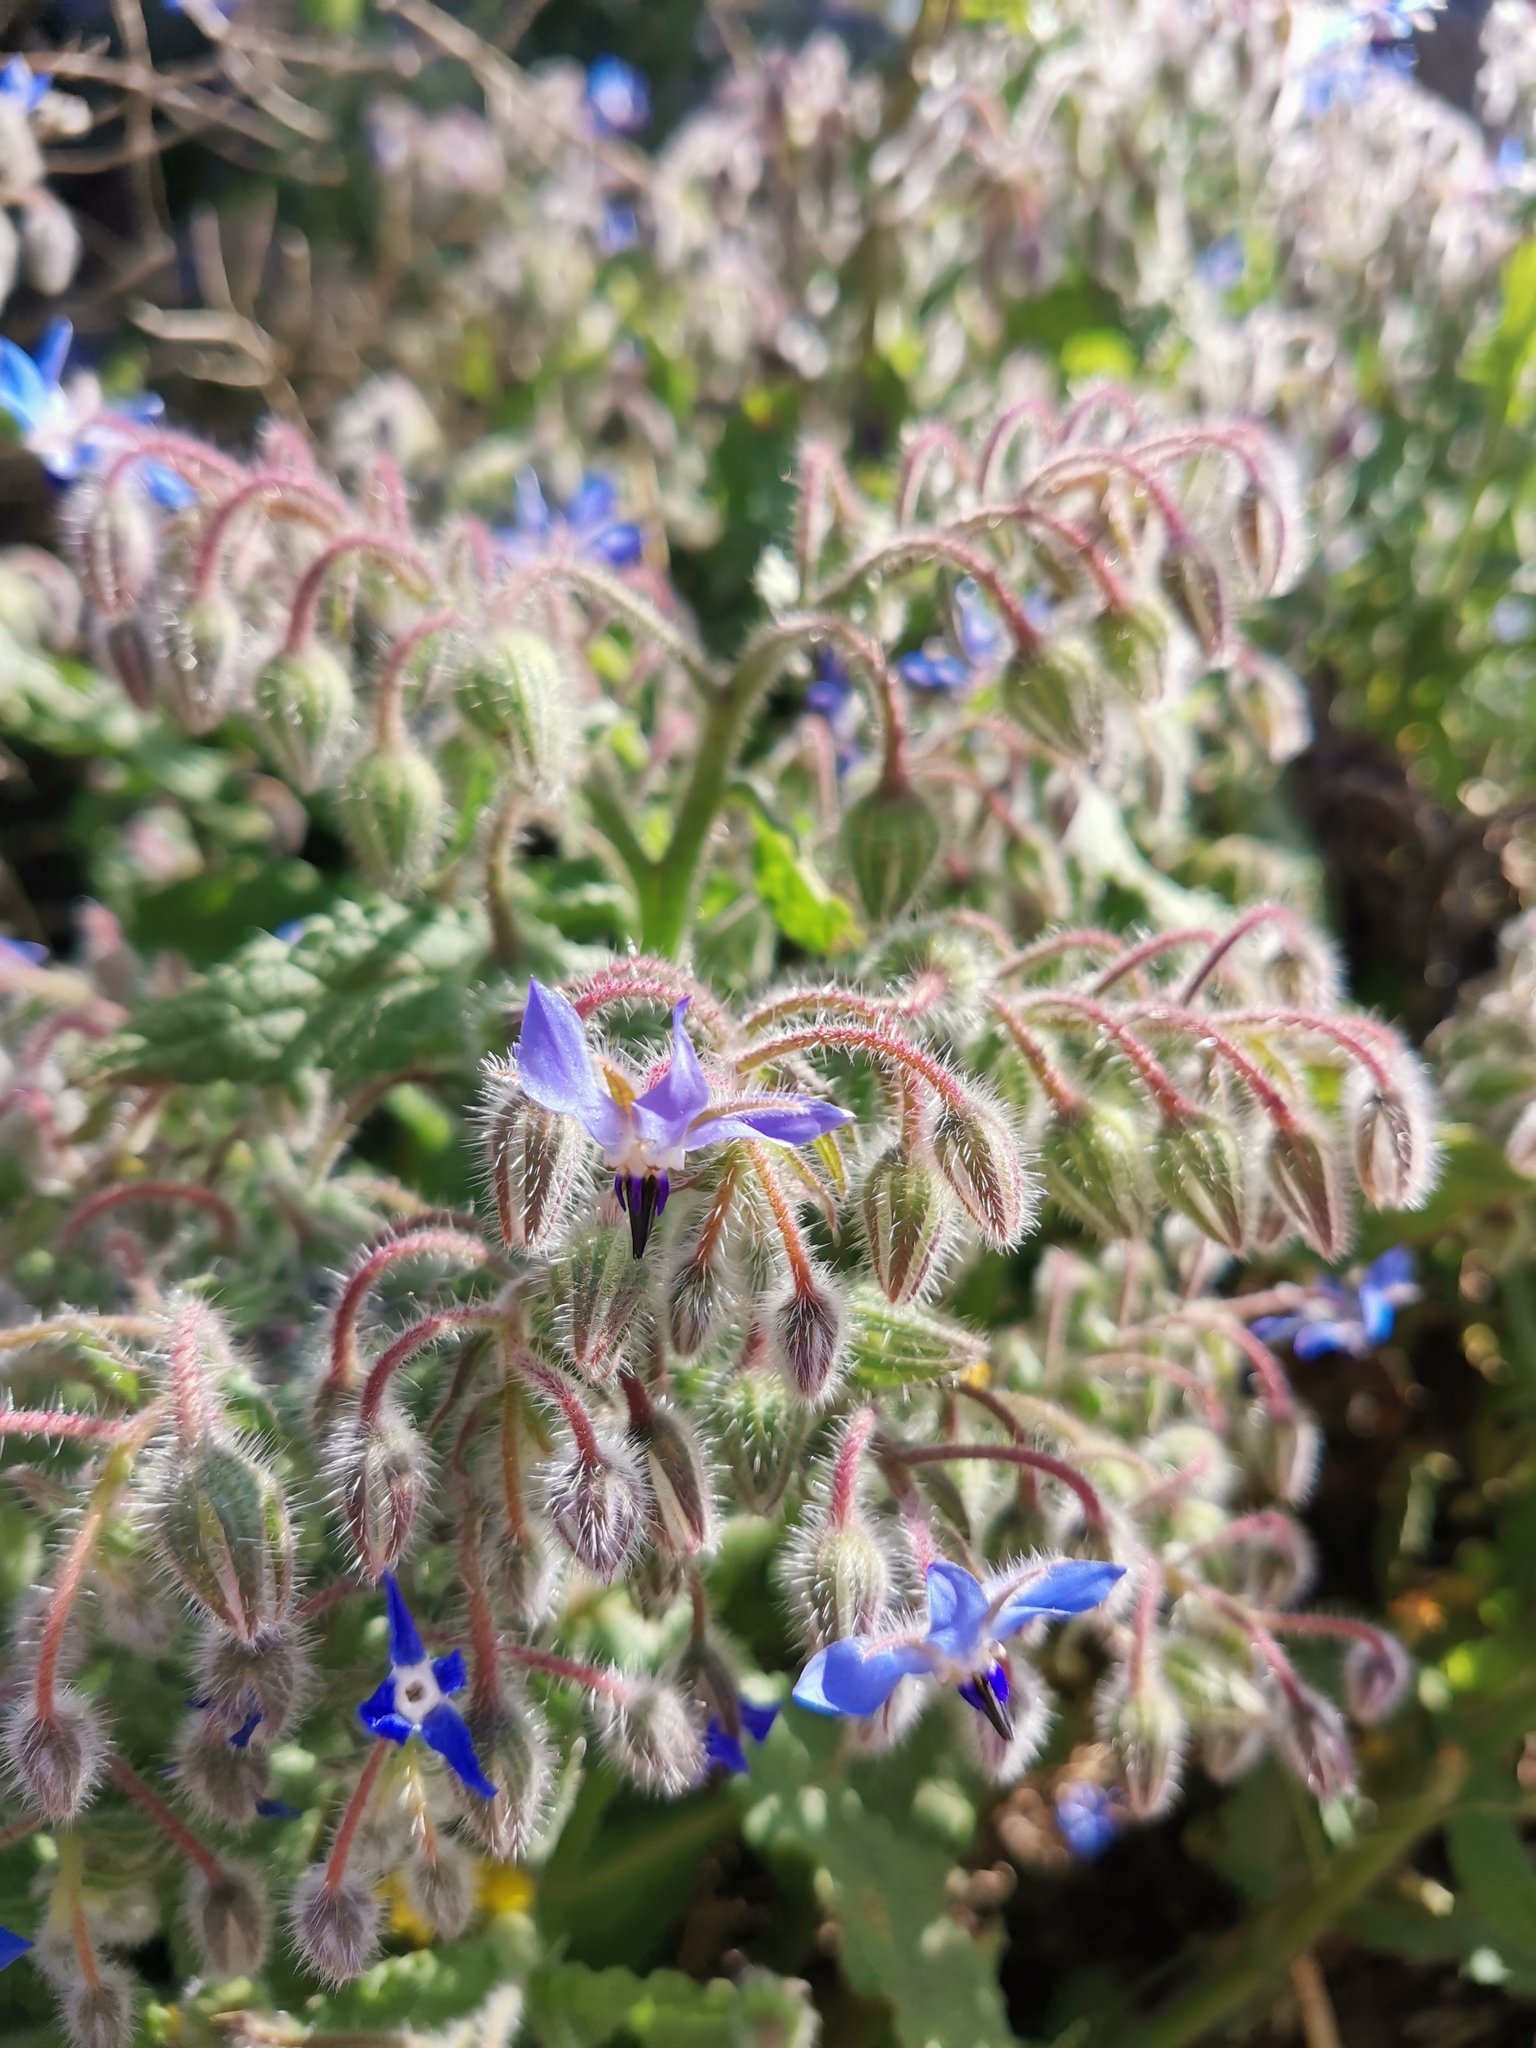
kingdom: Plantae
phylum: Tracheophyta
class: Magnoliopsida
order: Boraginales
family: Boraginaceae
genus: Borago
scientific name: Borago officinalis
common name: Borage
